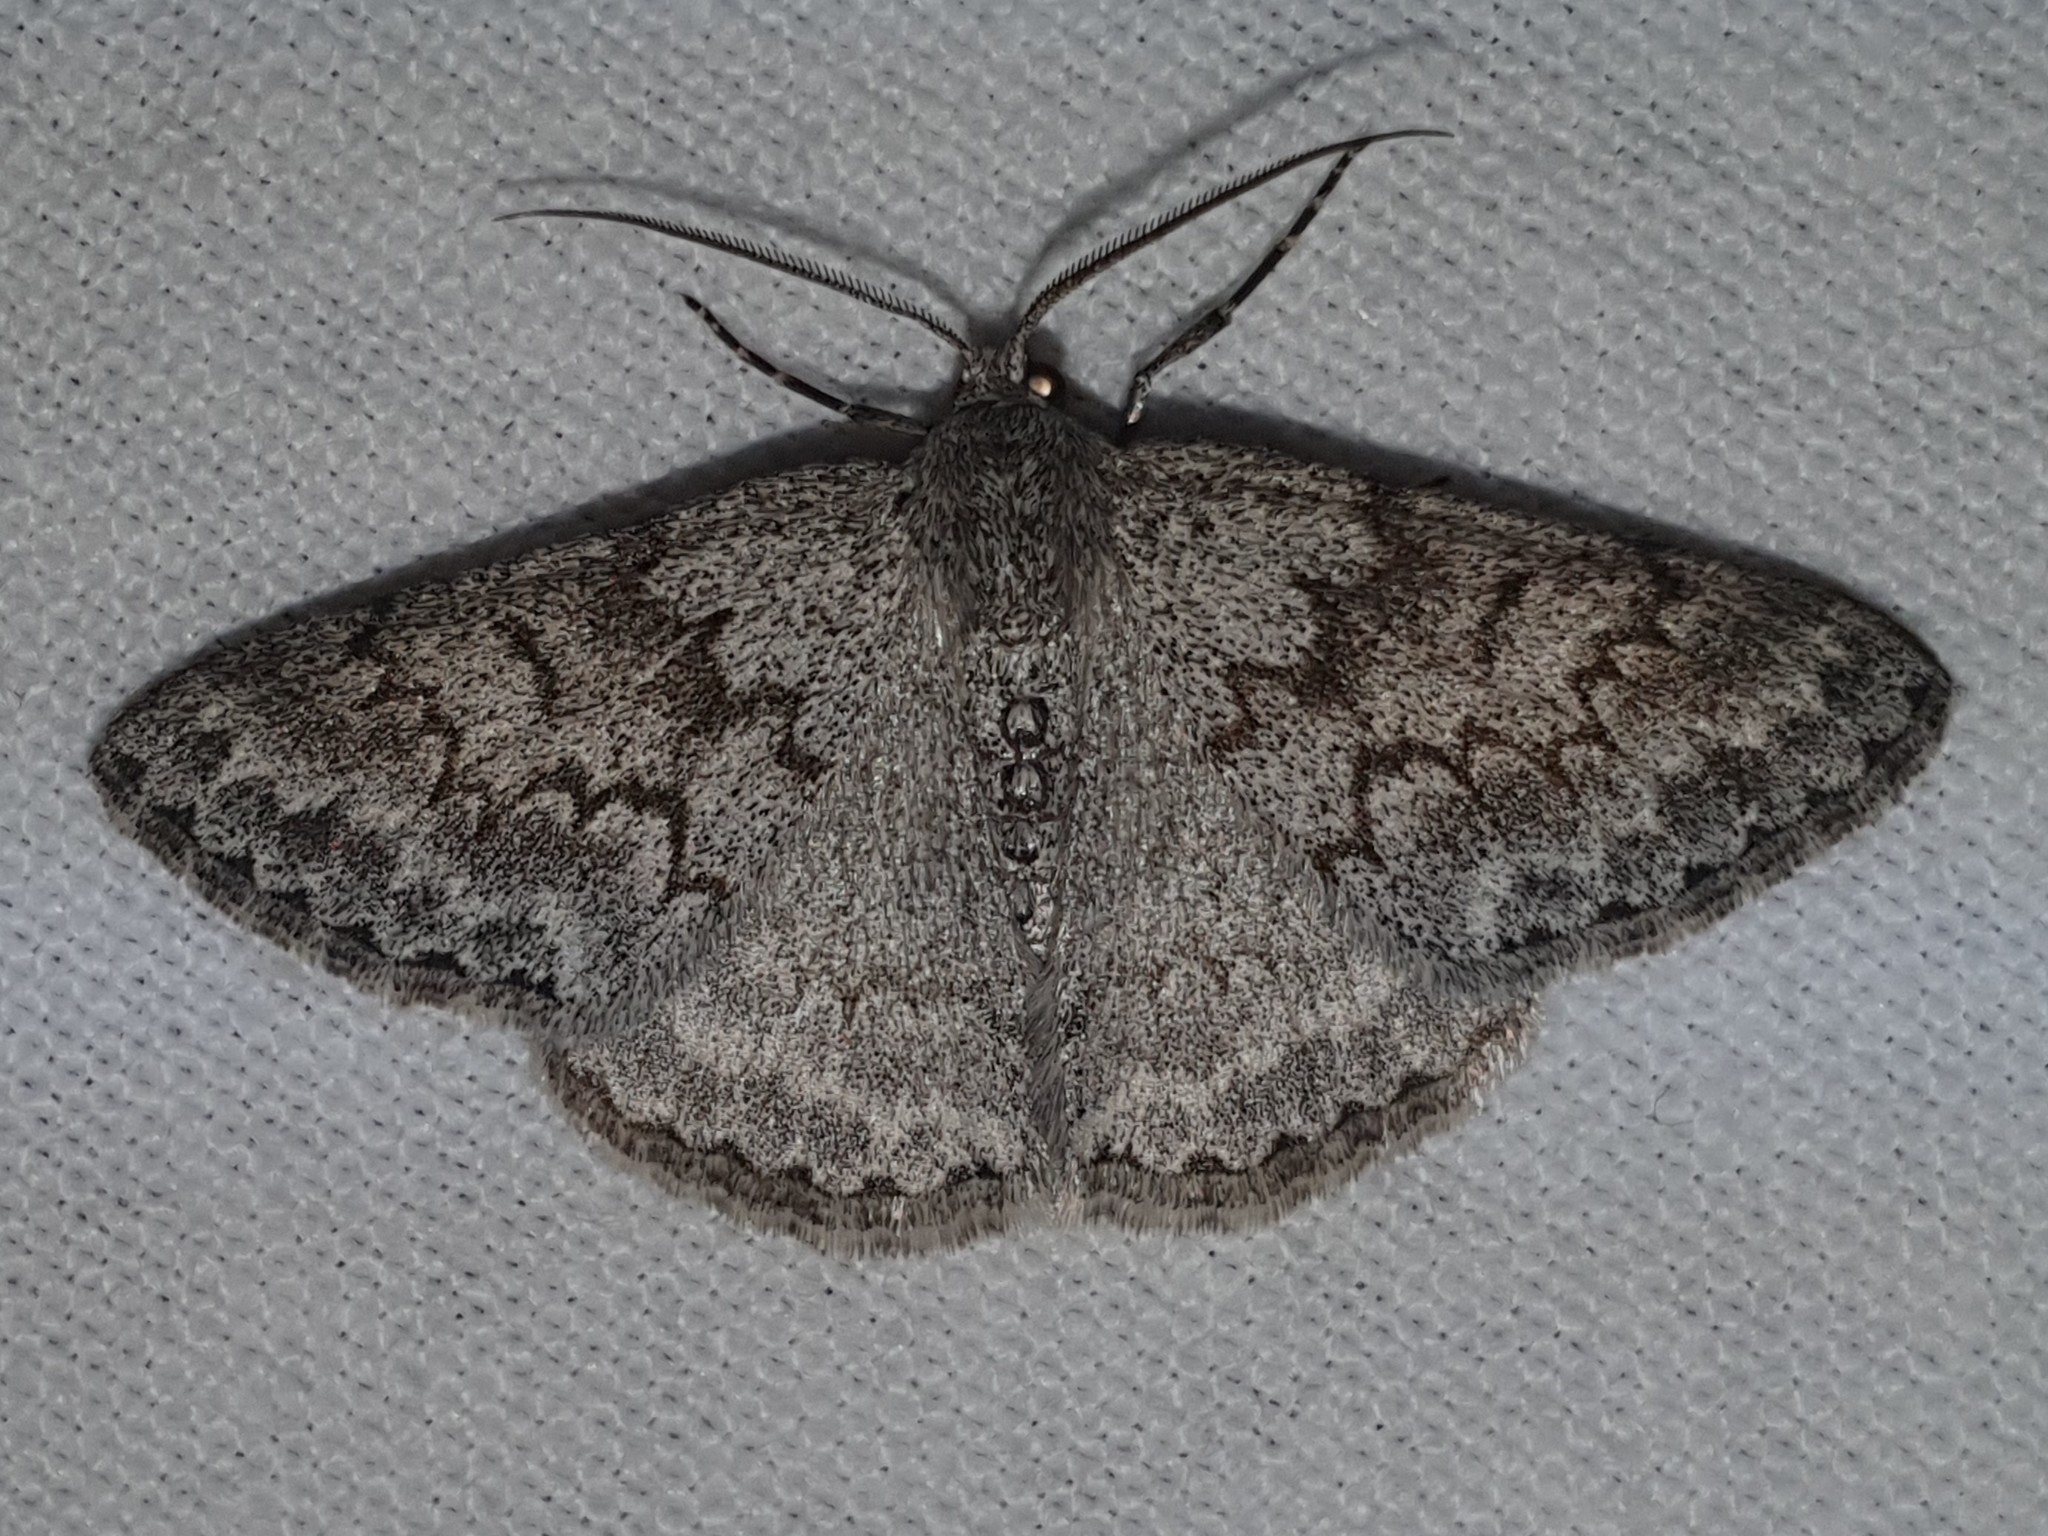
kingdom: Animalia
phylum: Arthropoda
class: Insecta
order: Lepidoptera
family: Geometridae
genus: Pseudoterpna
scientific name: Pseudoterpna coronillaria
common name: Jersey emerald
